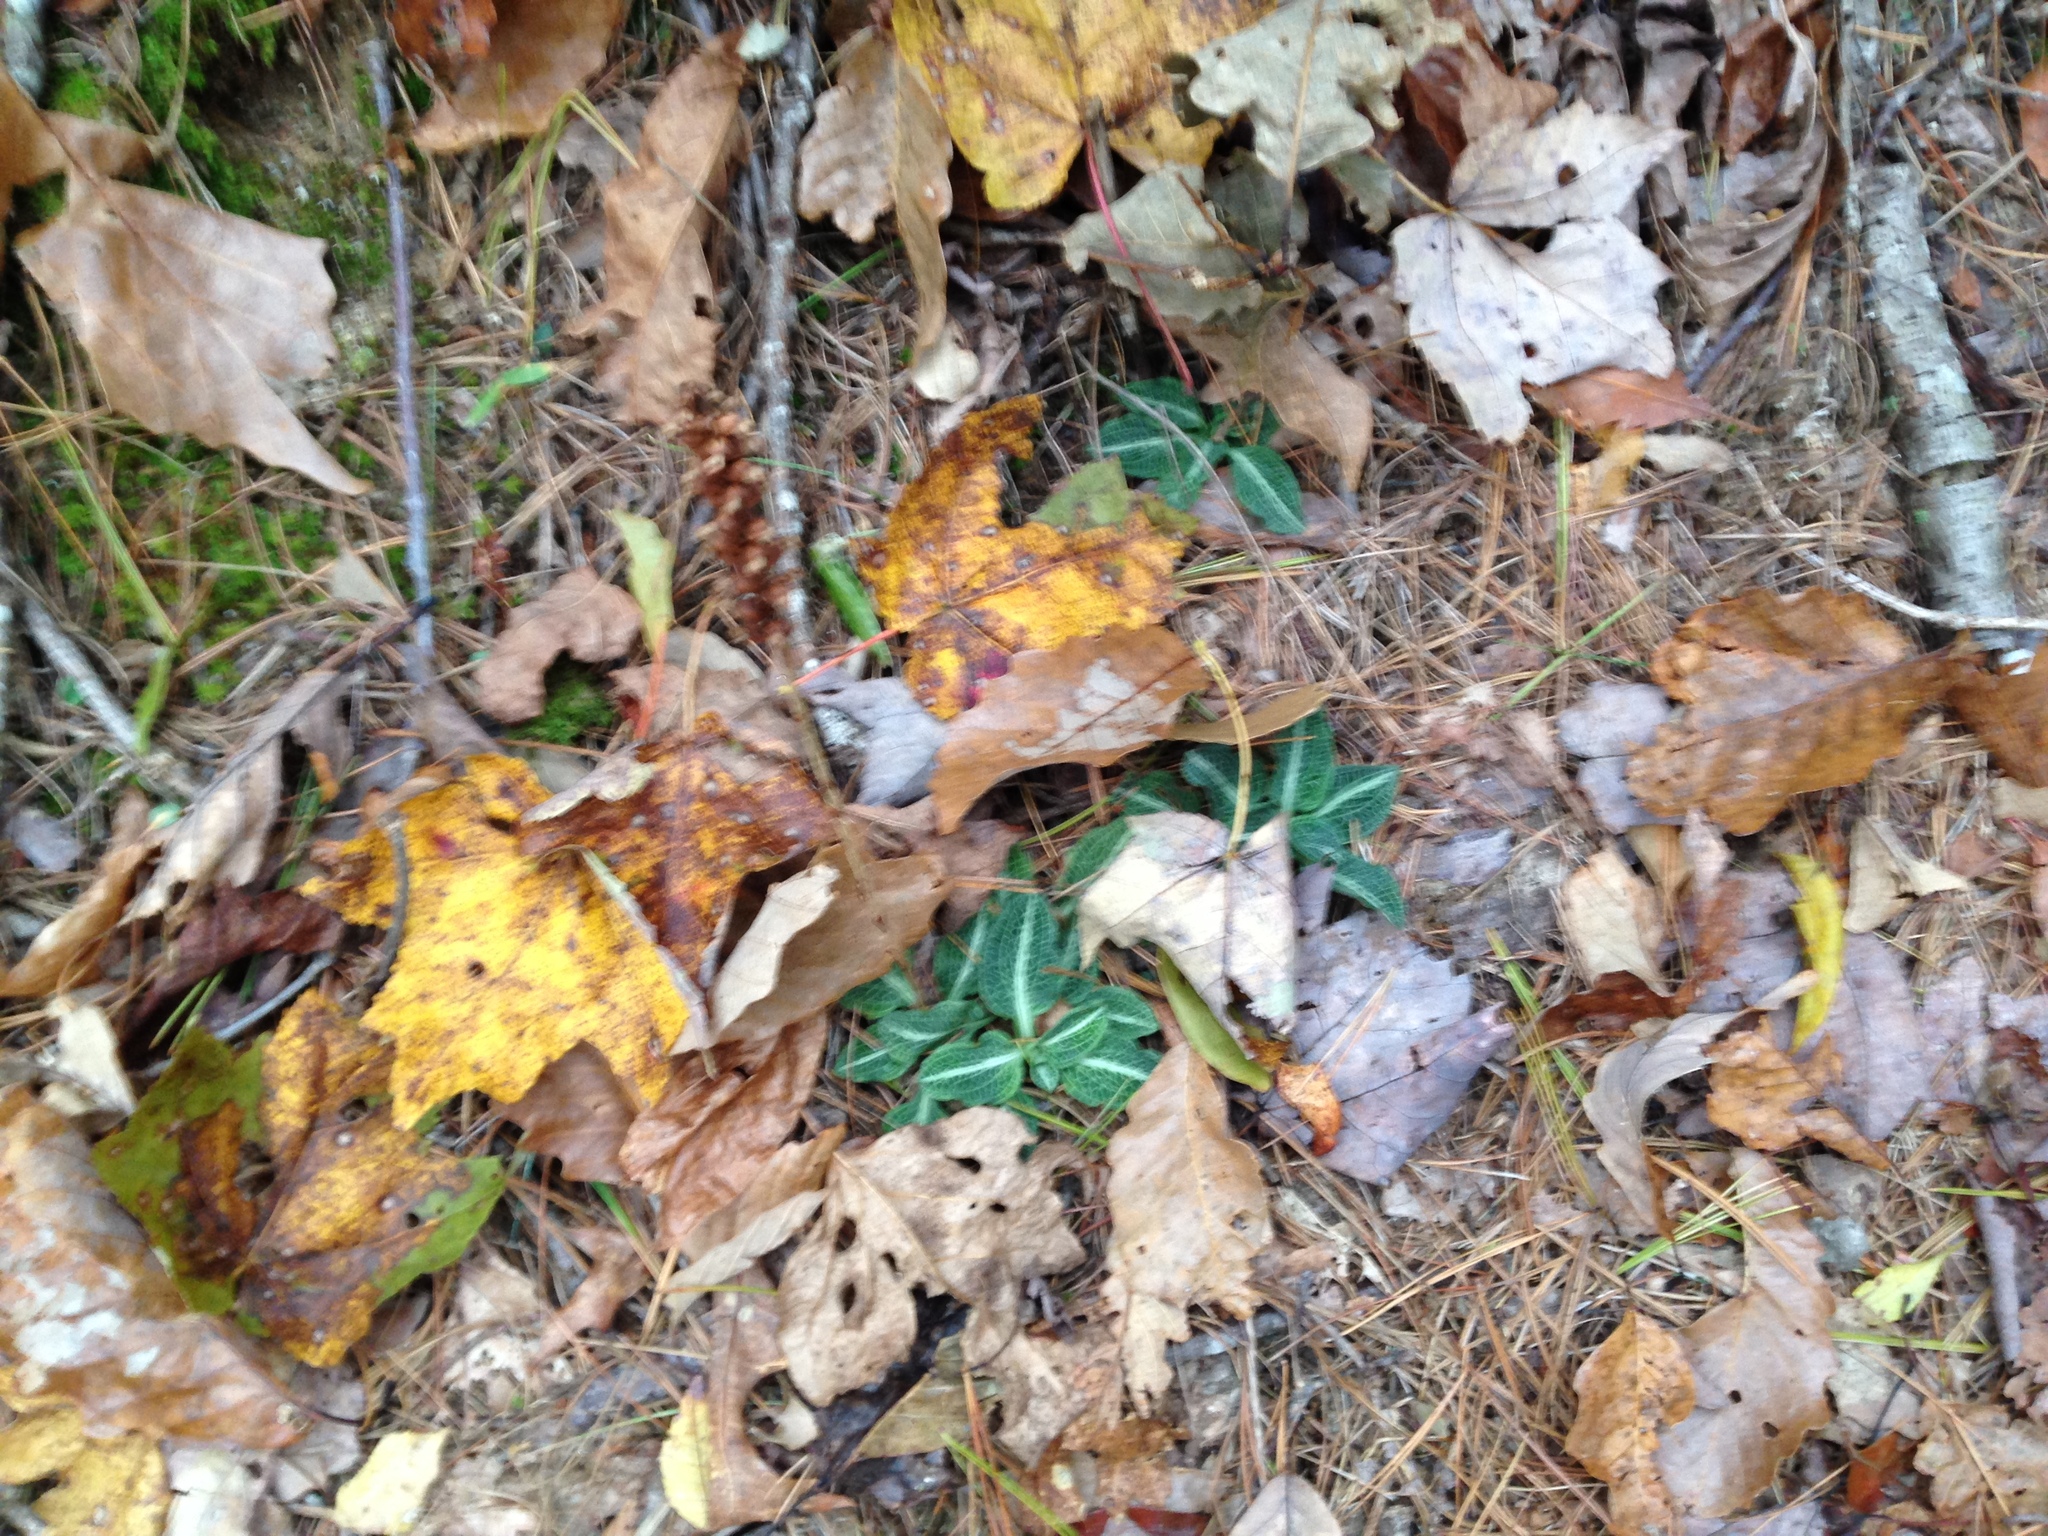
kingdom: Plantae
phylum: Tracheophyta
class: Liliopsida
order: Asparagales
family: Orchidaceae
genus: Goodyera
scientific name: Goodyera pubescens
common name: Downy rattlesnake-plantain
